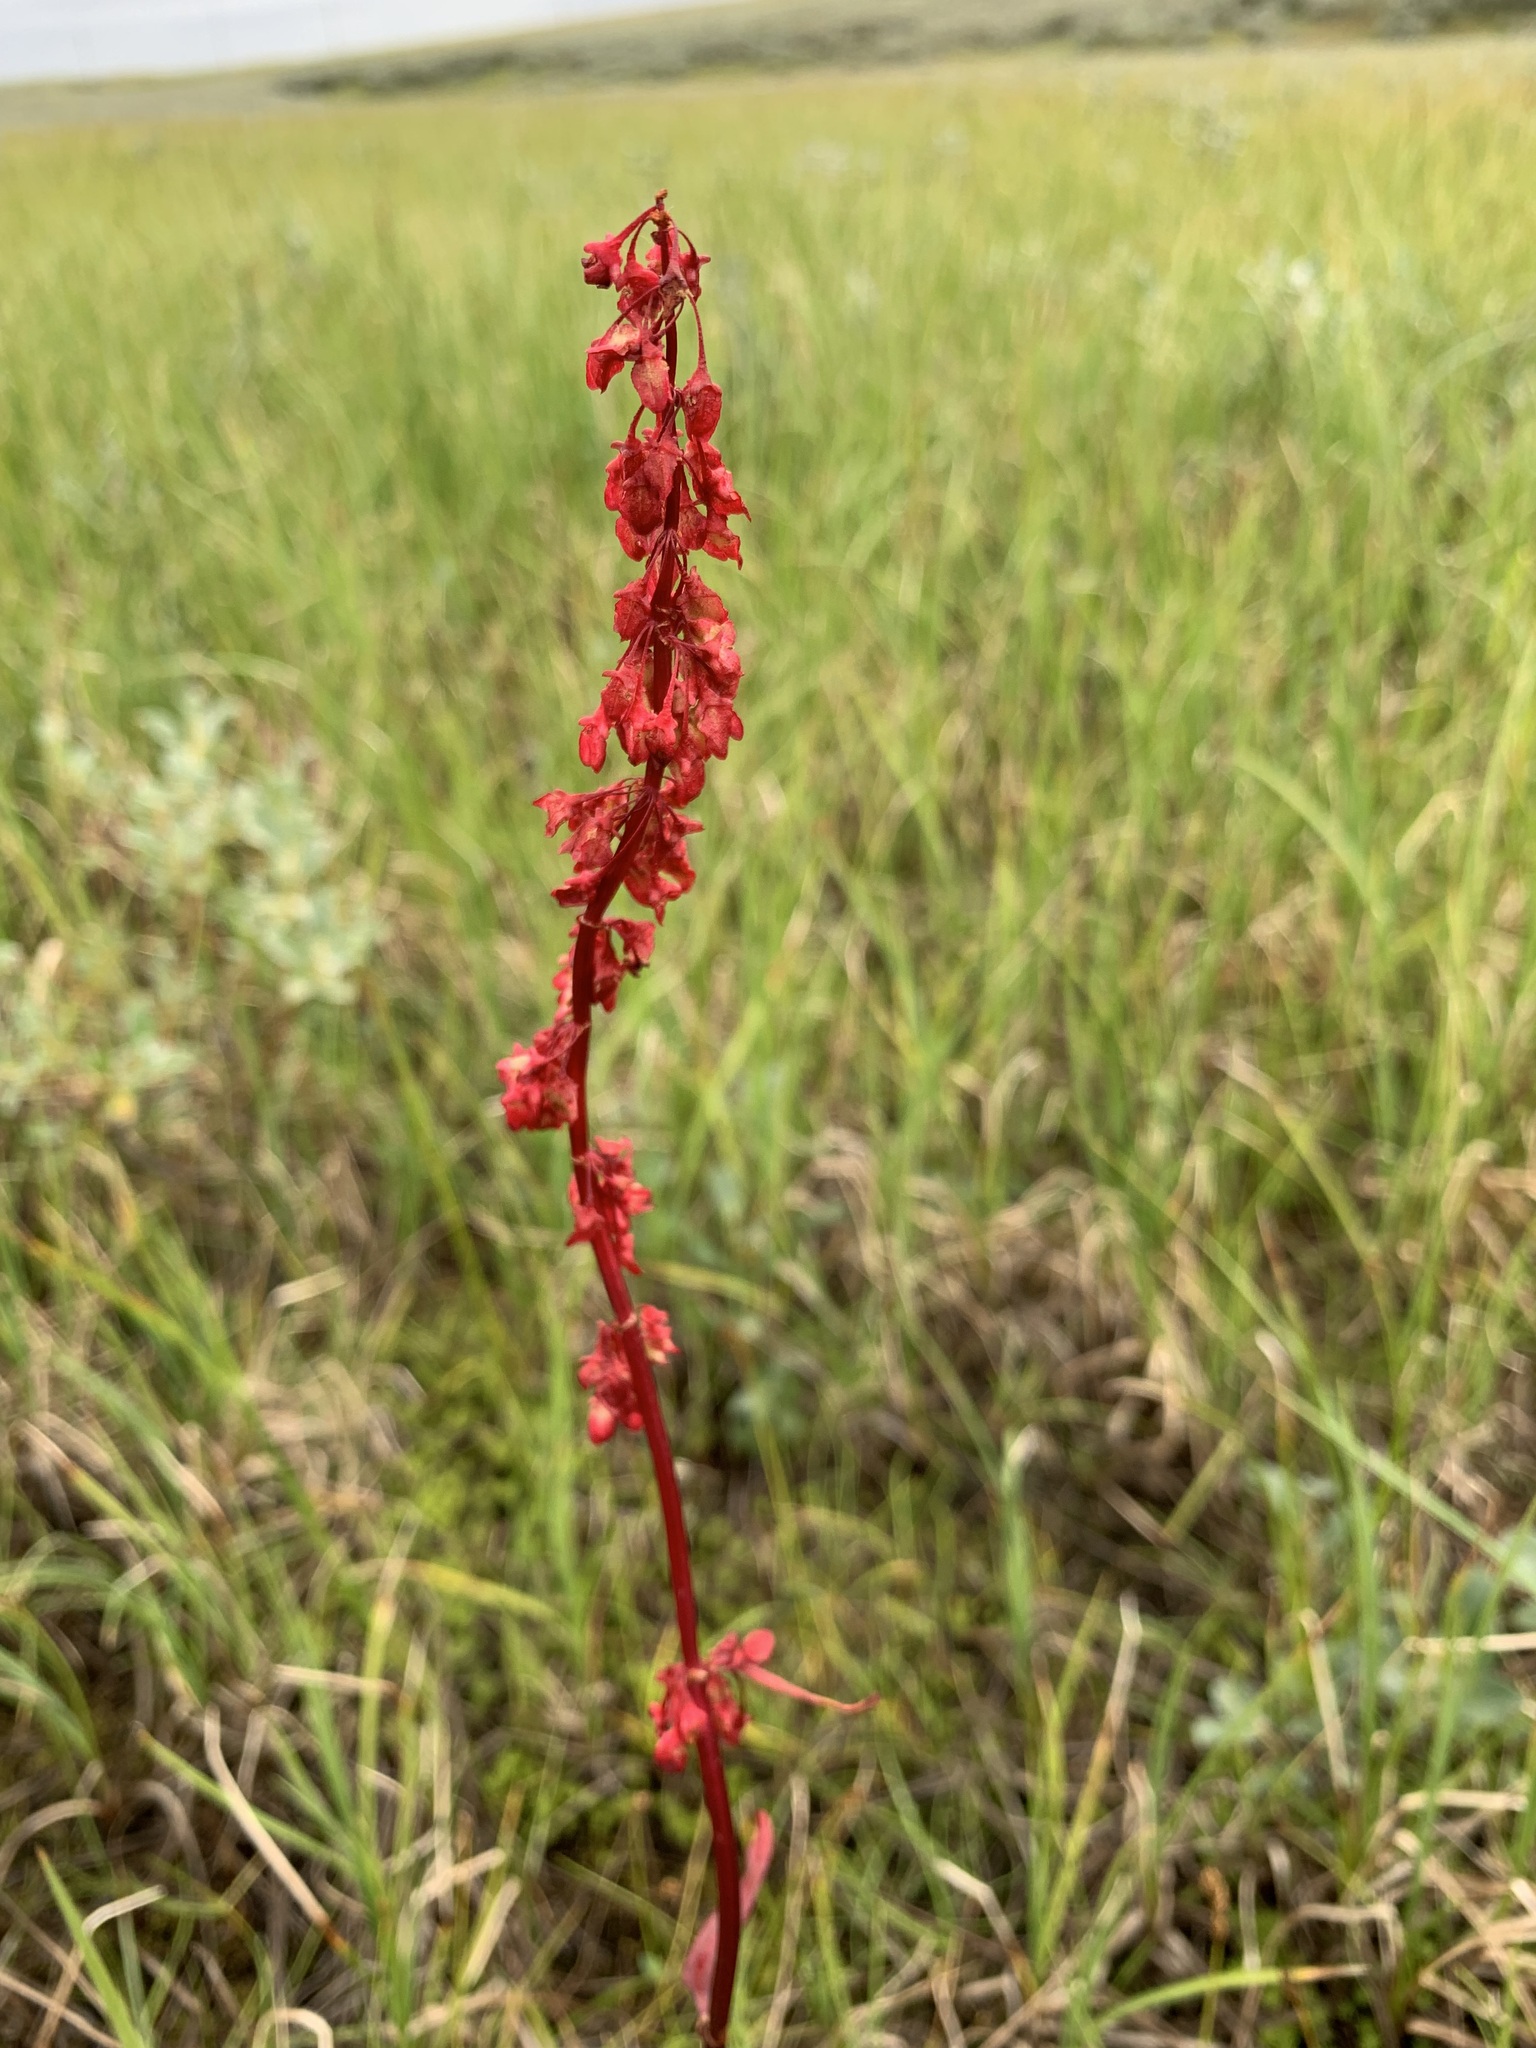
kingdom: Plantae
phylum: Tracheophyta
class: Magnoliopsida
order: Caryophyllales
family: Polygonaceae
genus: Rumex
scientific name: Rumex arcticus
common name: Arctic dock
